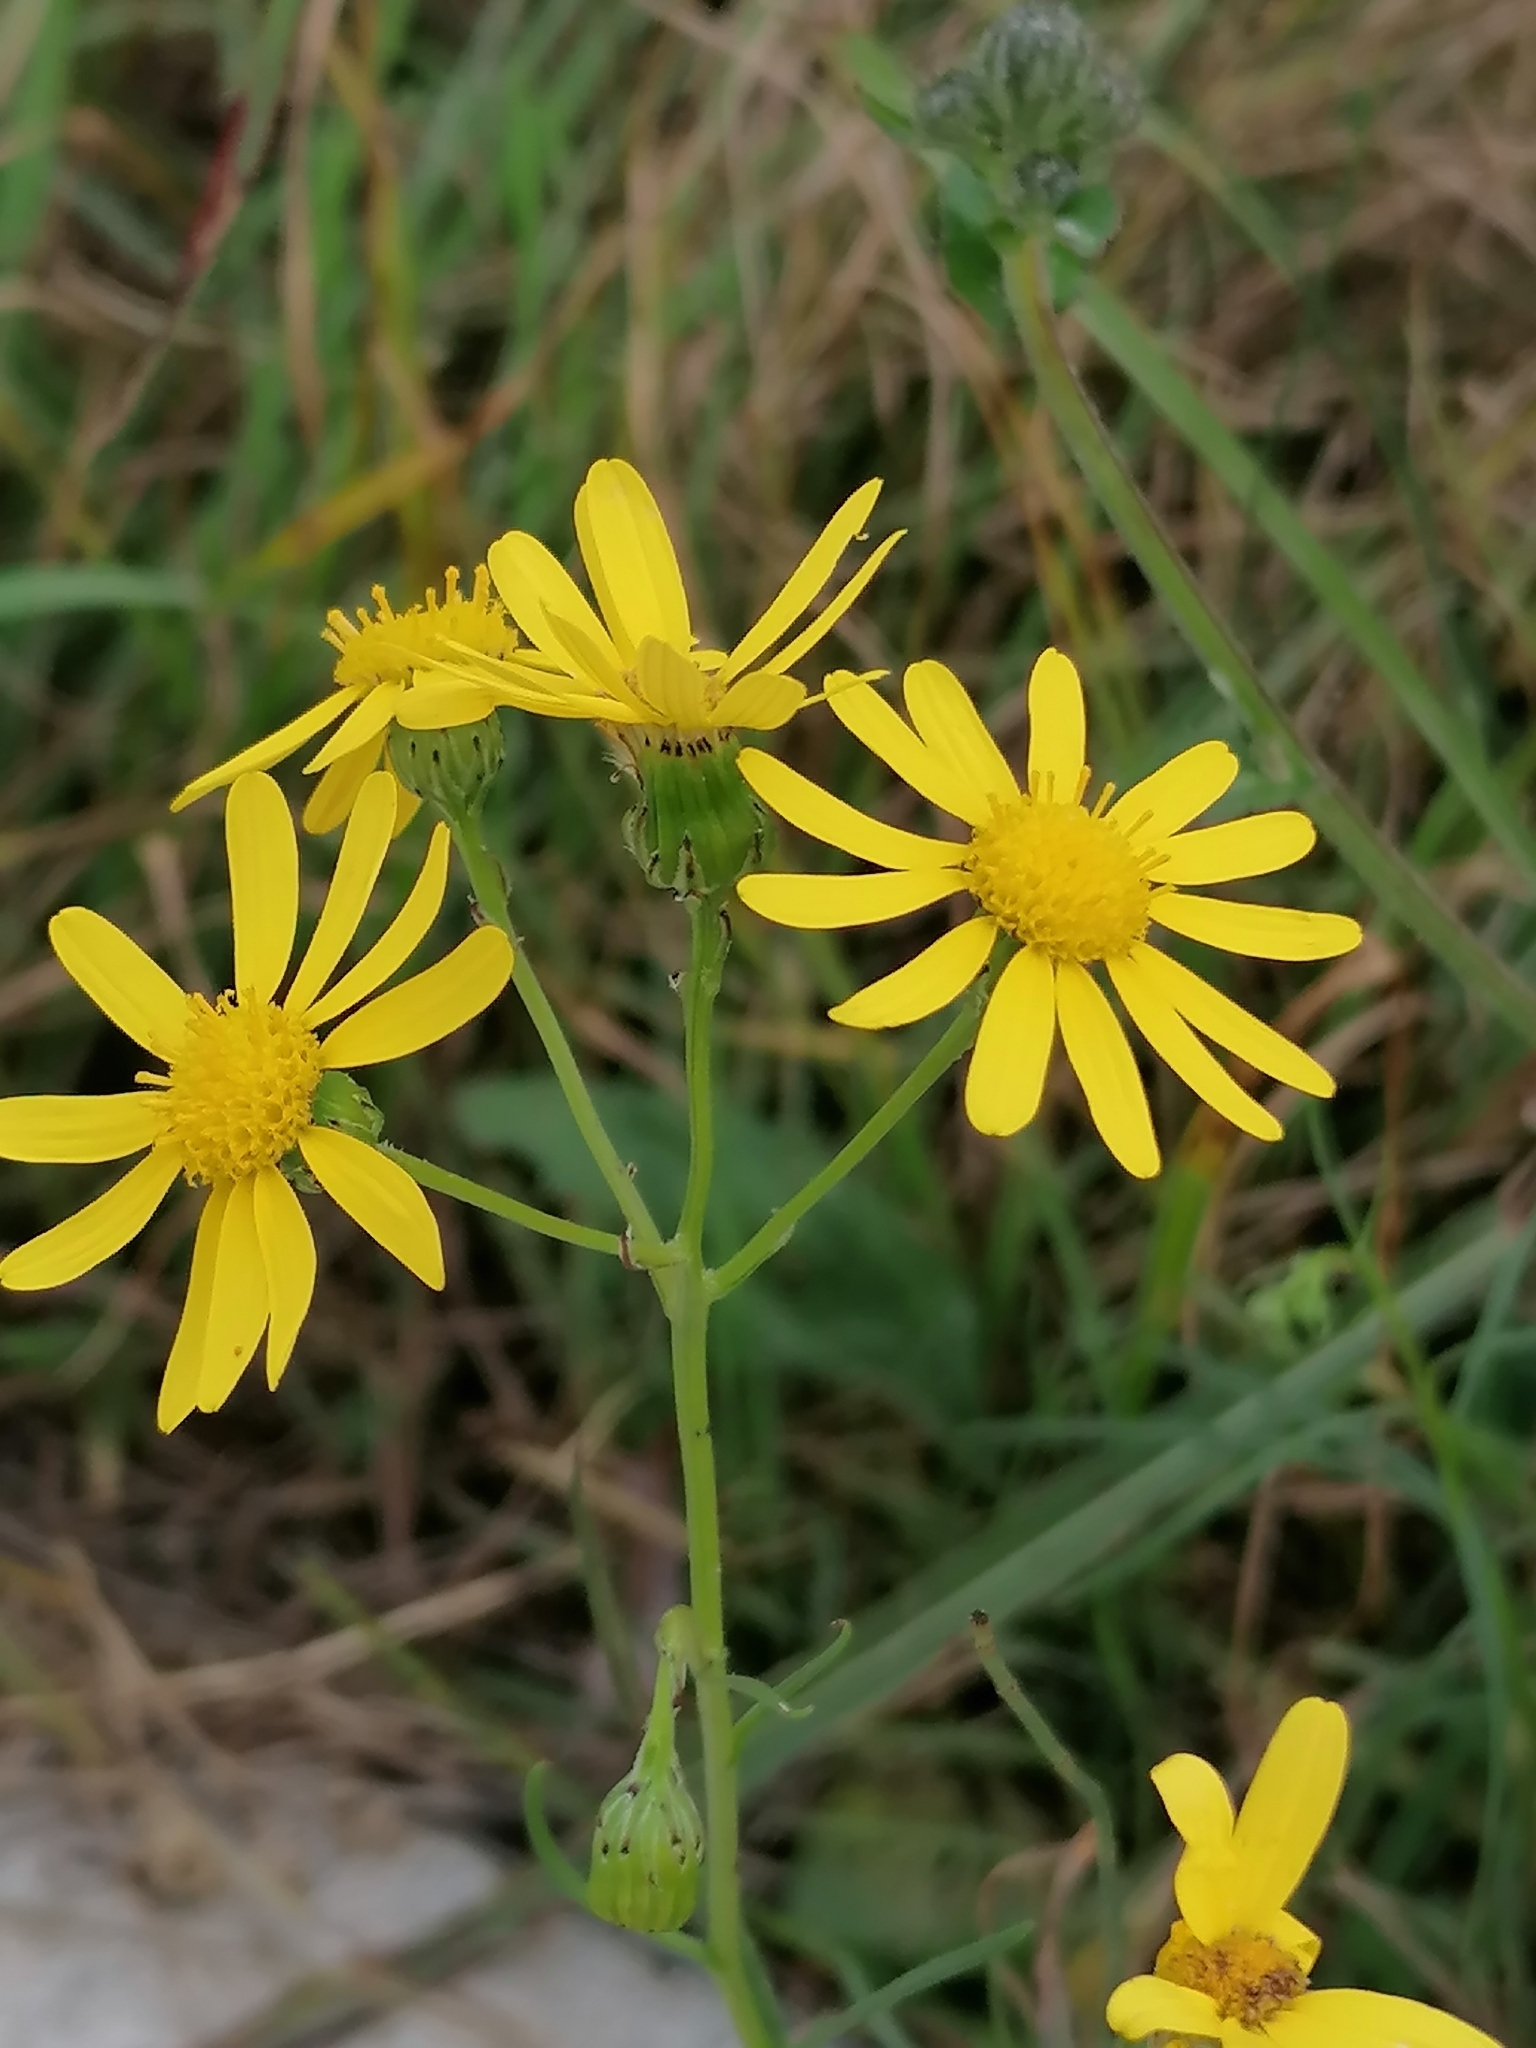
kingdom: Plantae
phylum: Tracheophyta
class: Magnoliopsida
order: Asterales
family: Asteraceae
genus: Senecio
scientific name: Senecio inaequidens
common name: Narrow-leaved ragwort
